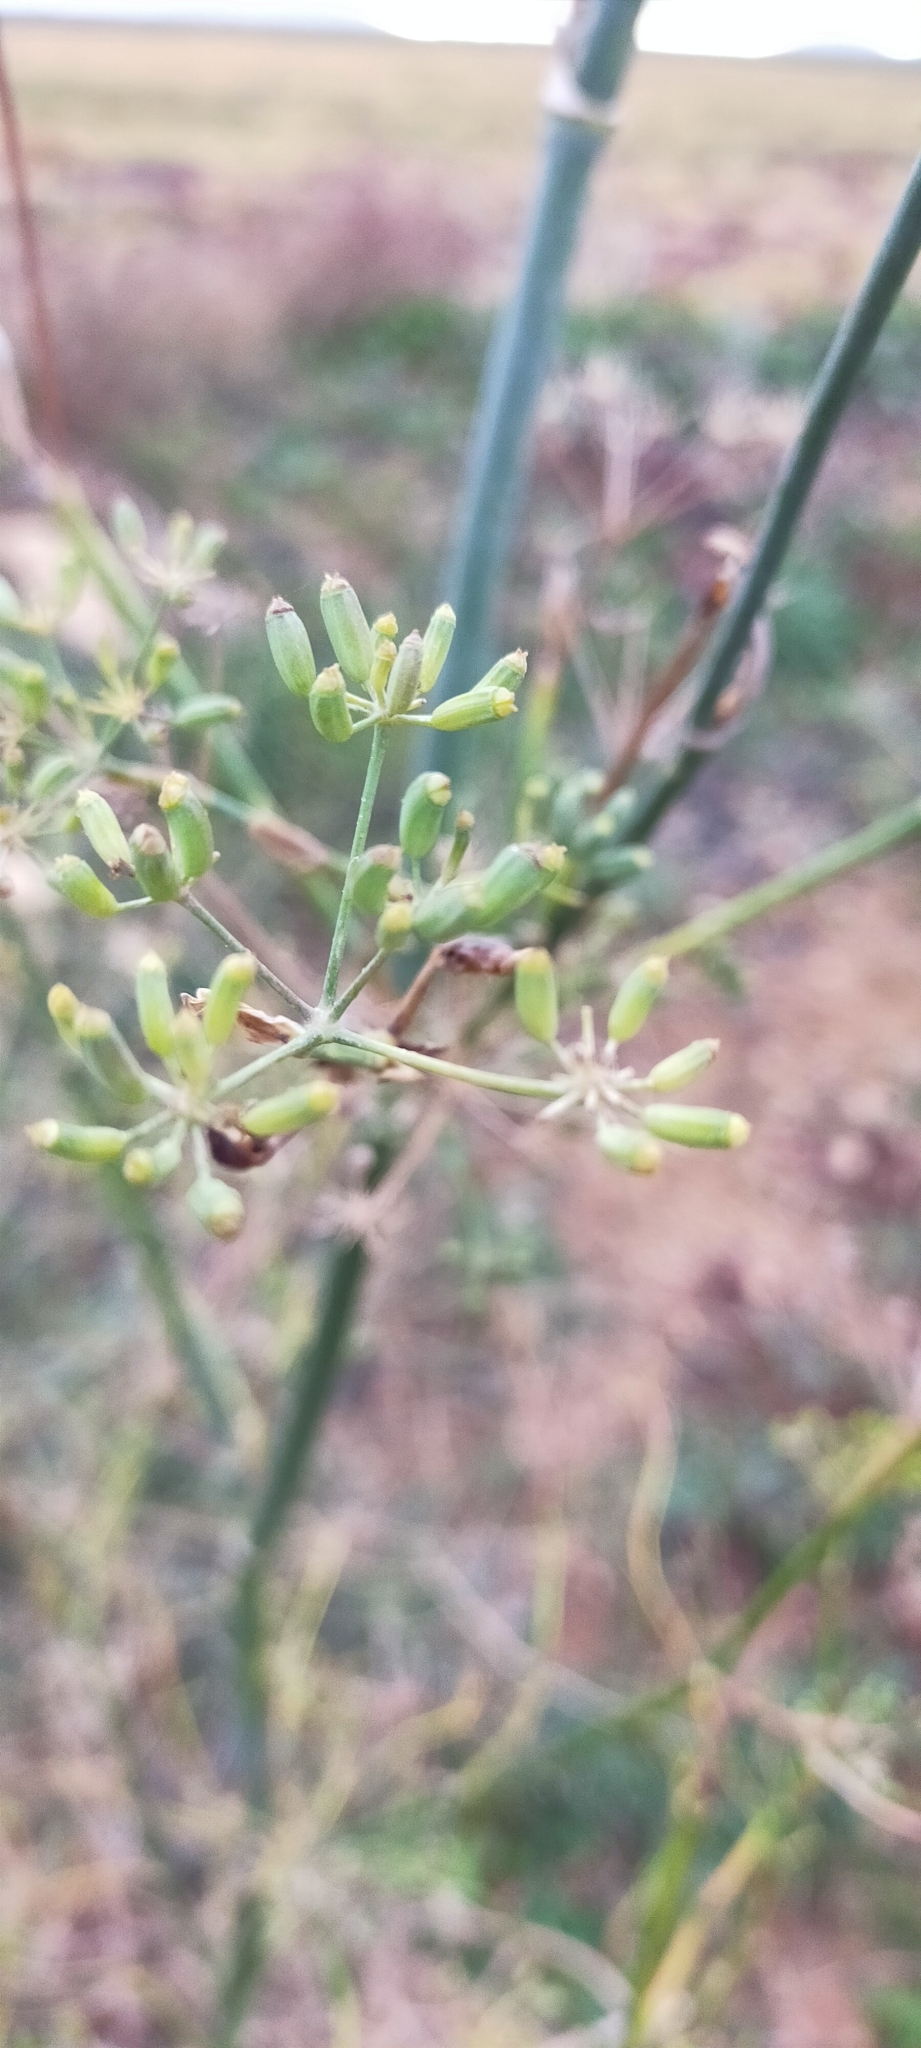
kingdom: Plantae
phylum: Tracheophyta
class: Magnoliopsida
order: Apiales
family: Apiaceae
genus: Foeniculum
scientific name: Foeniculum vulgare
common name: Fennel
